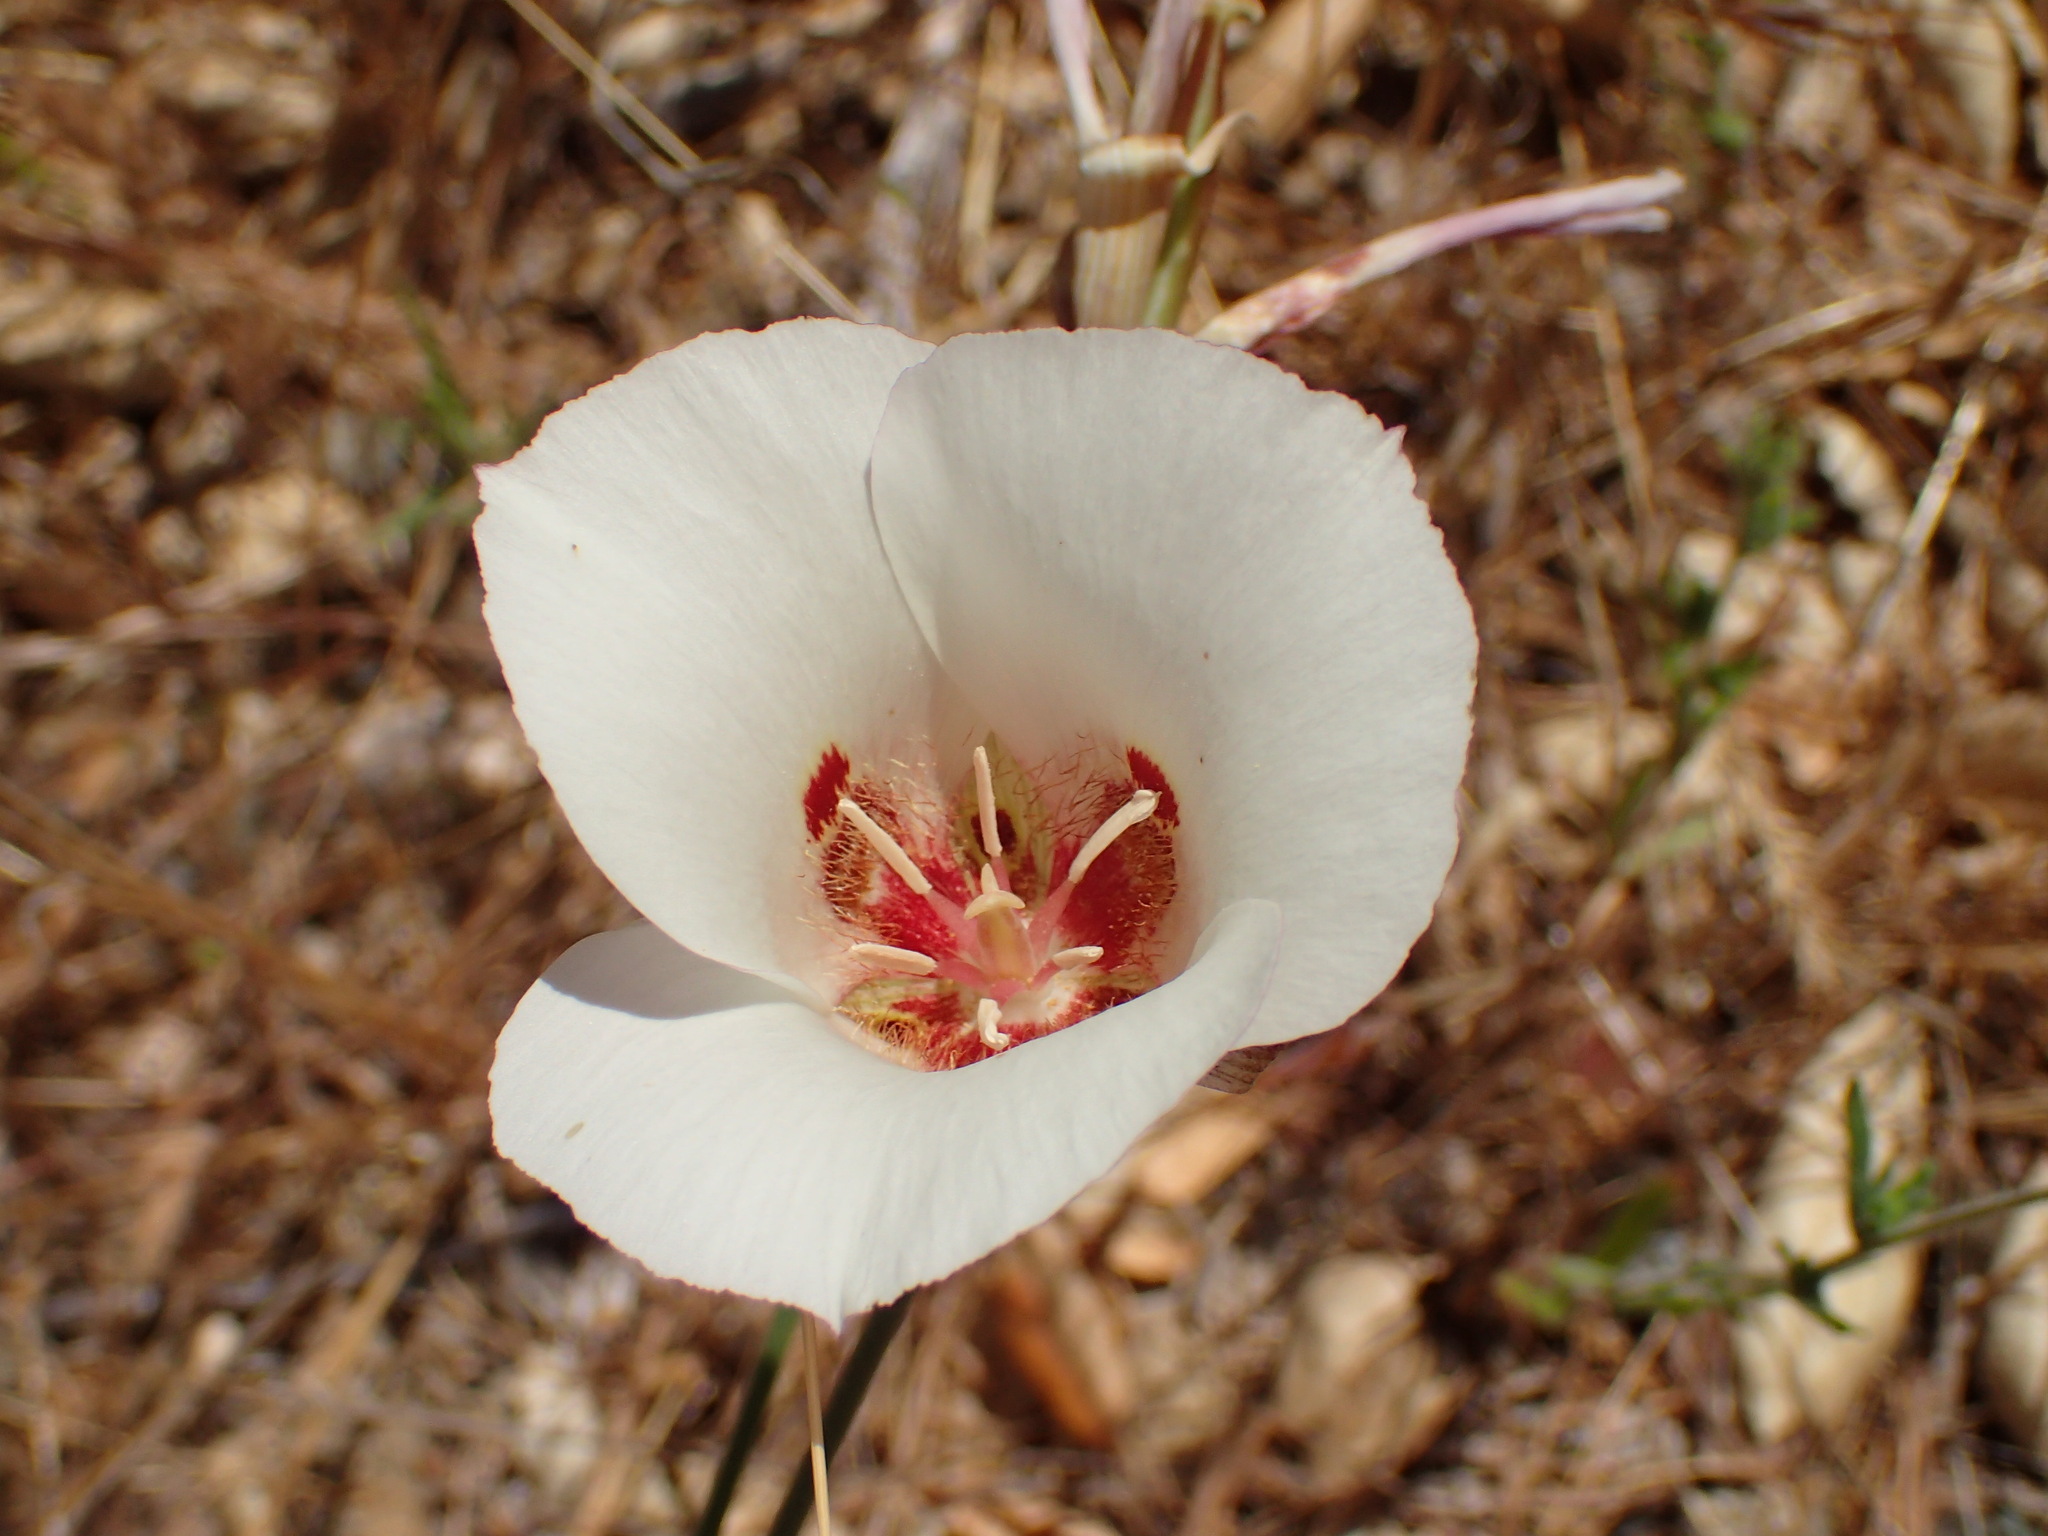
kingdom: Plantae
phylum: Tracheophyta
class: Liliopsida
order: Liliales
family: Liliaceae
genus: Calochortus
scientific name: Calochortus venustus
